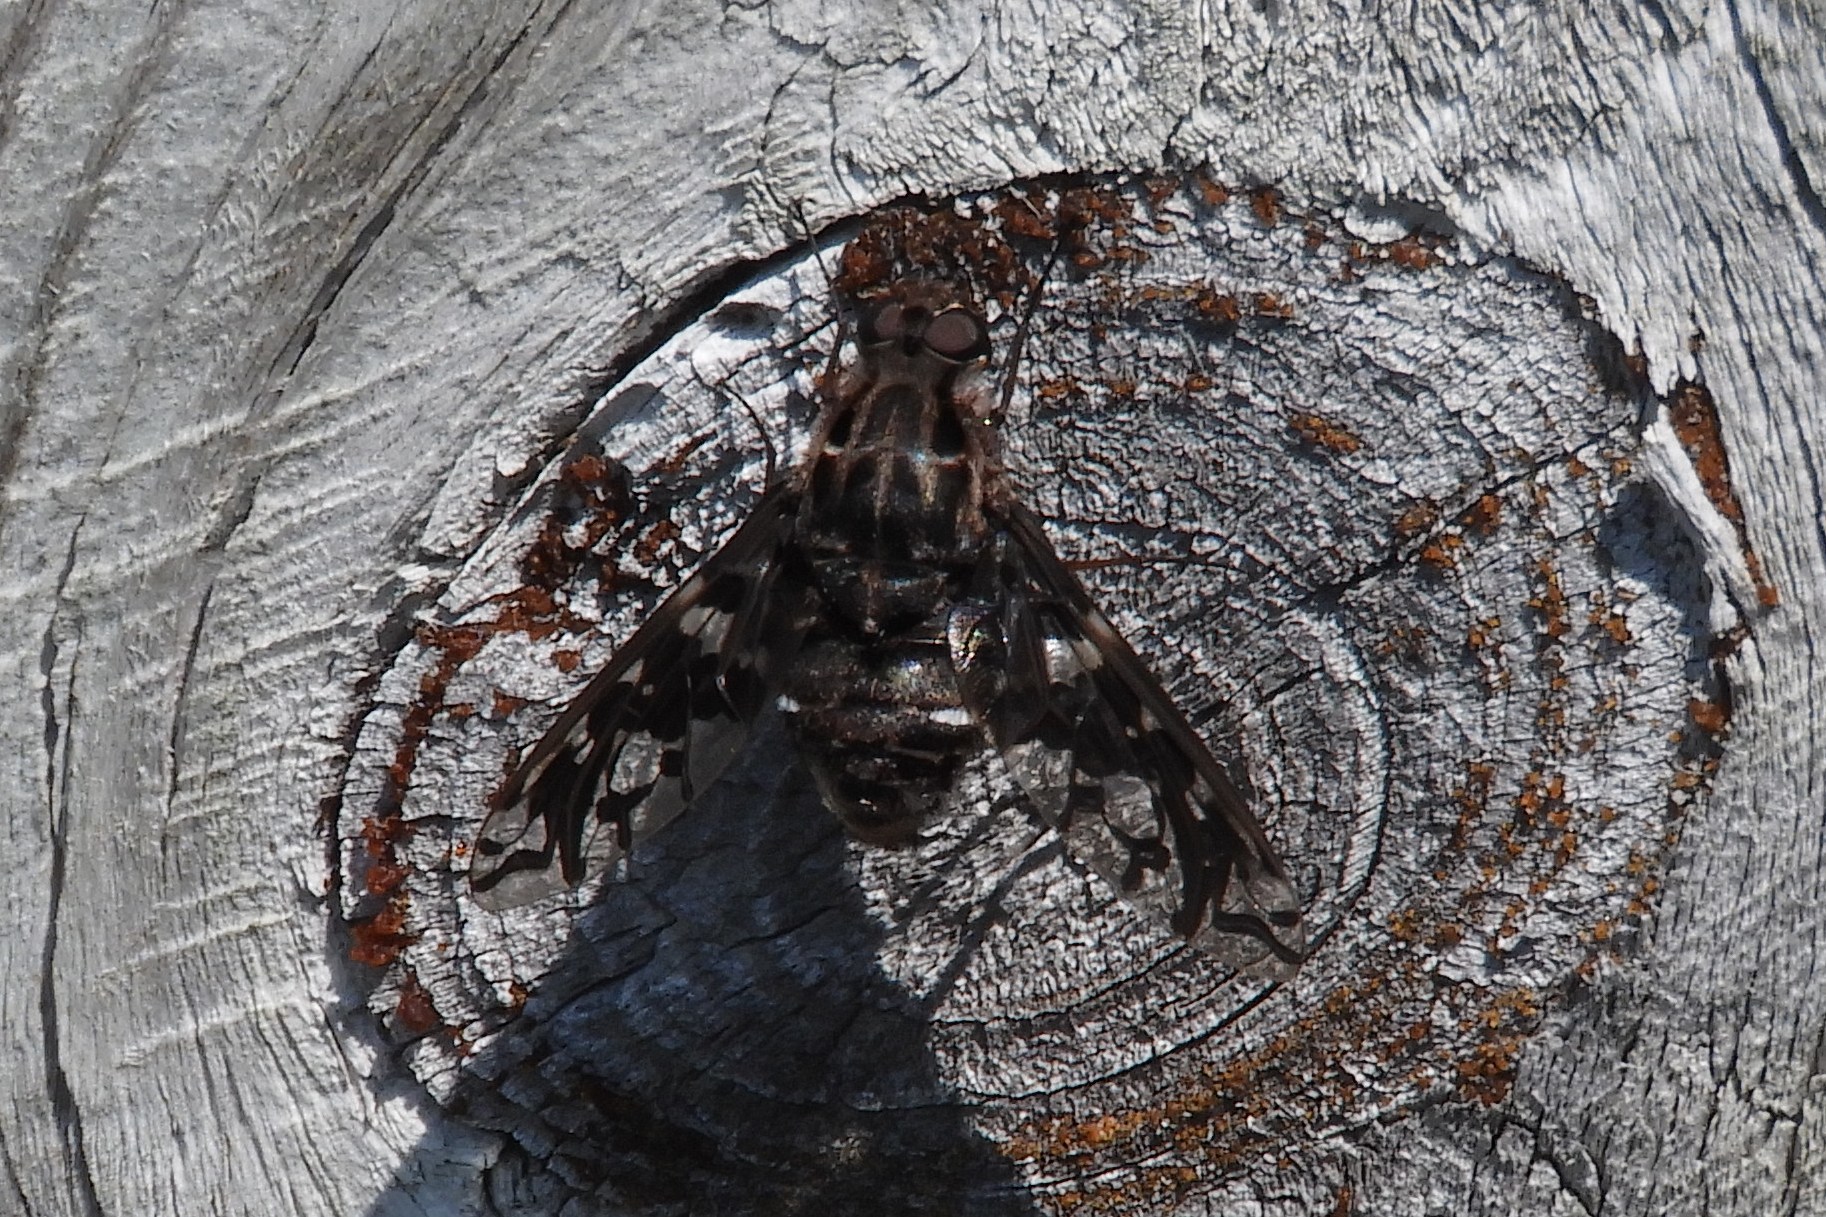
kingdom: Animalia
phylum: Arthropoda
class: Insecta
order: Diptera
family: Bombyliidae
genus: Xenox
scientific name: Xenox tigrinus
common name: Tiger bee fly
